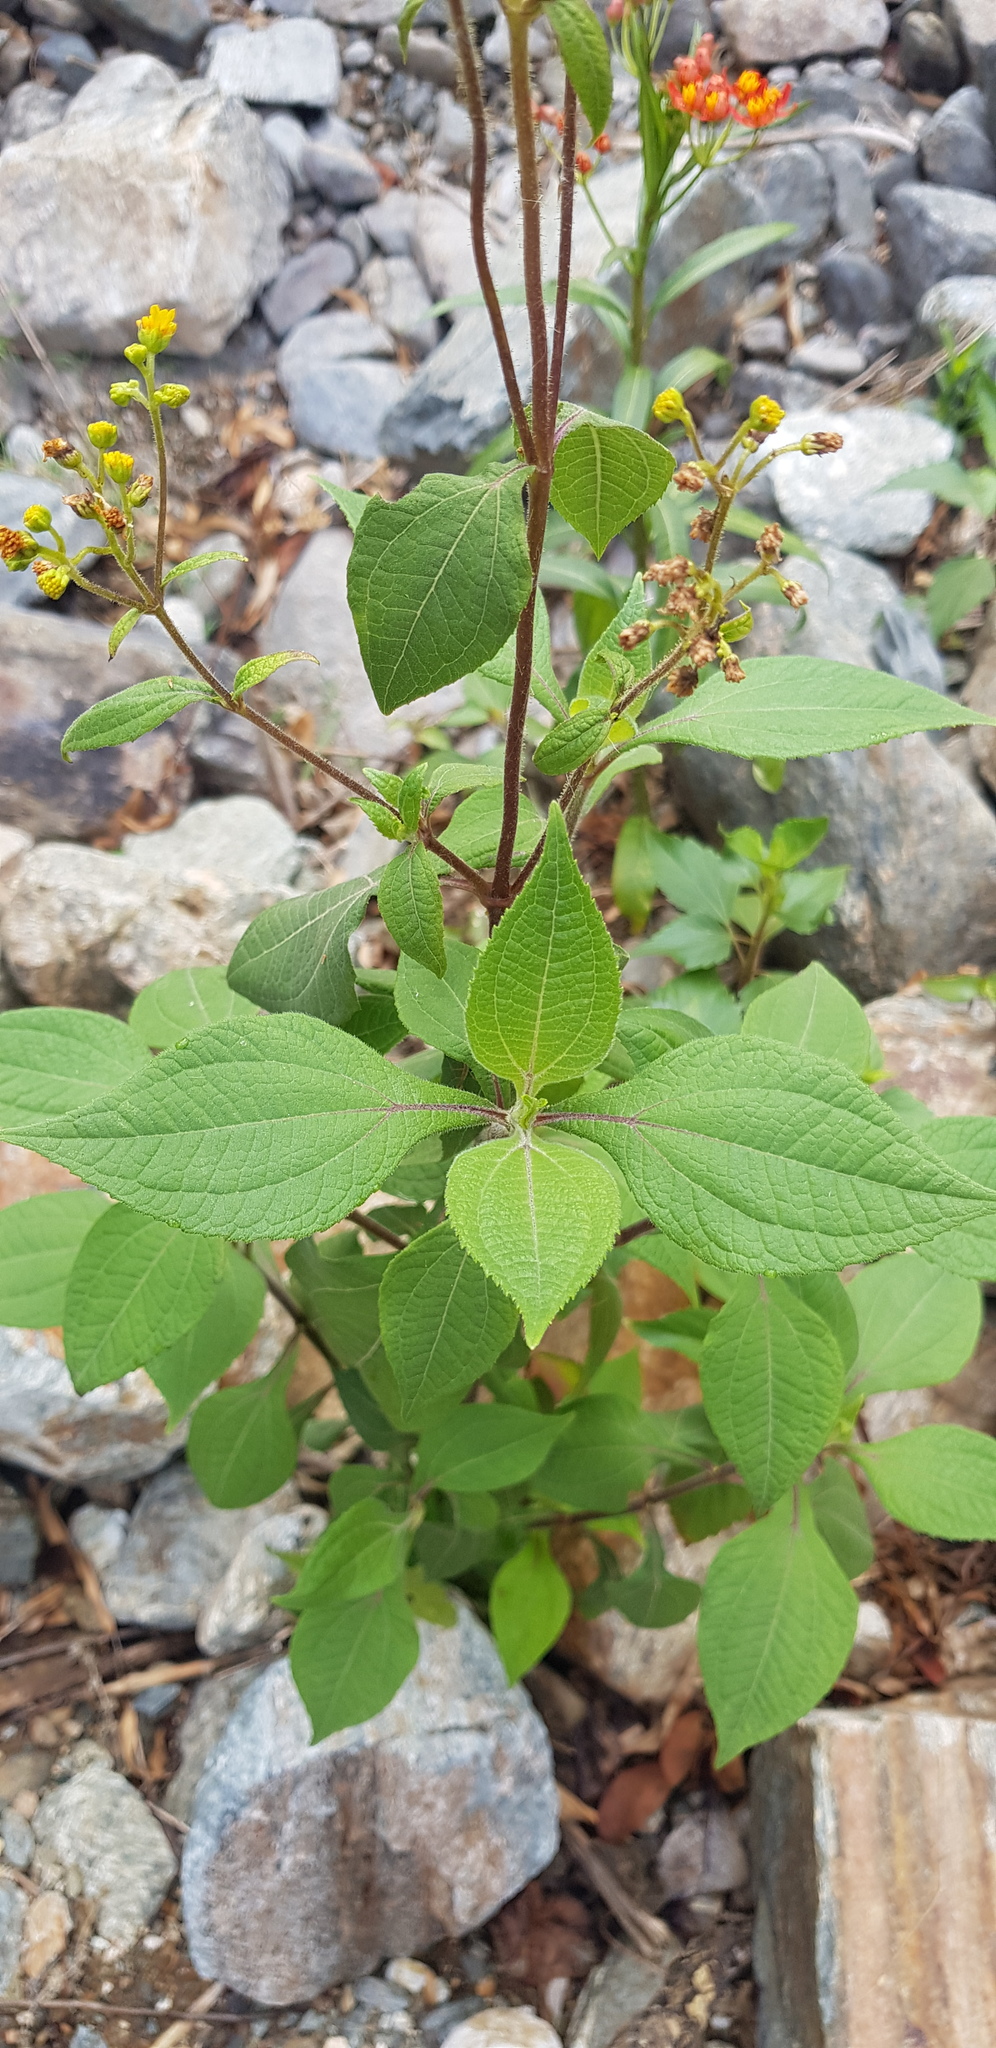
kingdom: Plantae
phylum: Tracheophyta
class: Magnoliopsida
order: Asterales
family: Asteraceae
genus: Trigonospermum
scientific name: Trigonospermum melampodioides
